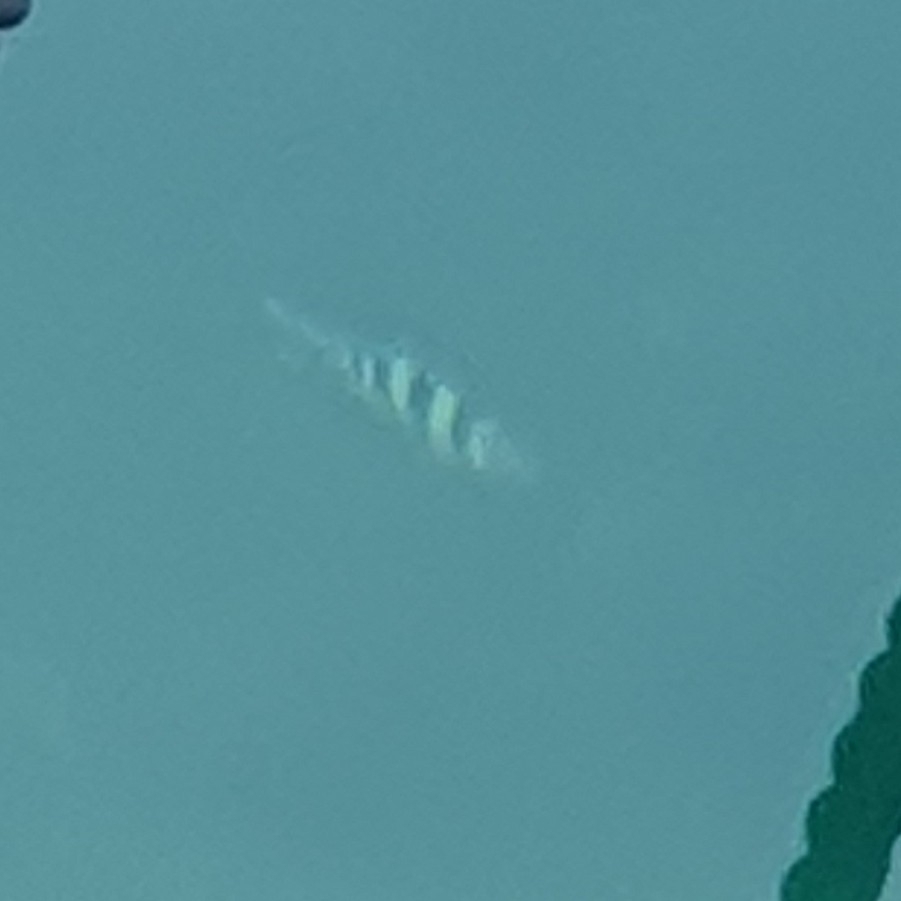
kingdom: Animalia
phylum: Chordata
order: Perciformes
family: Pomacentridae
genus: Abudefduf
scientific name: Abudefduf vaigiensis
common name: Indo-pacific sergeant
